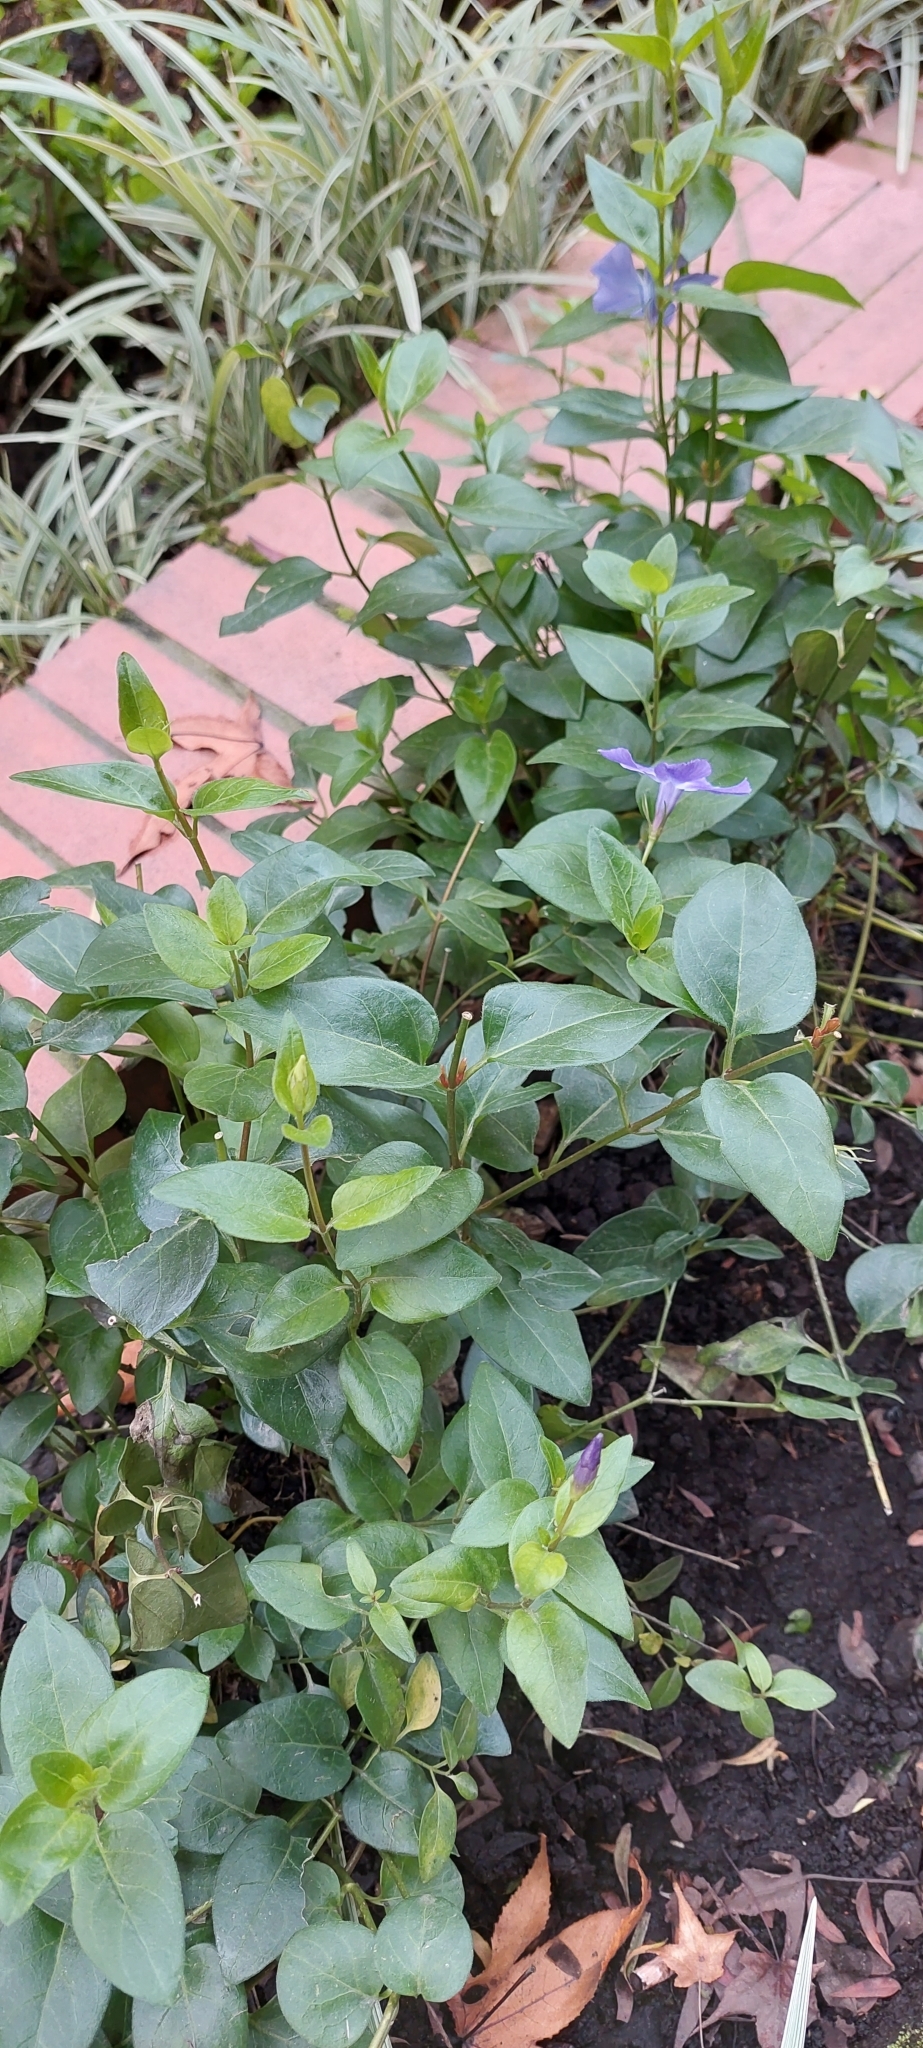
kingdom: Plantae
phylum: Tracheophyta
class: Magnoliopsida
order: Gentianales
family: Apocynaceae
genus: Vinca
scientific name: Vinca major
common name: Greater periwinkle
